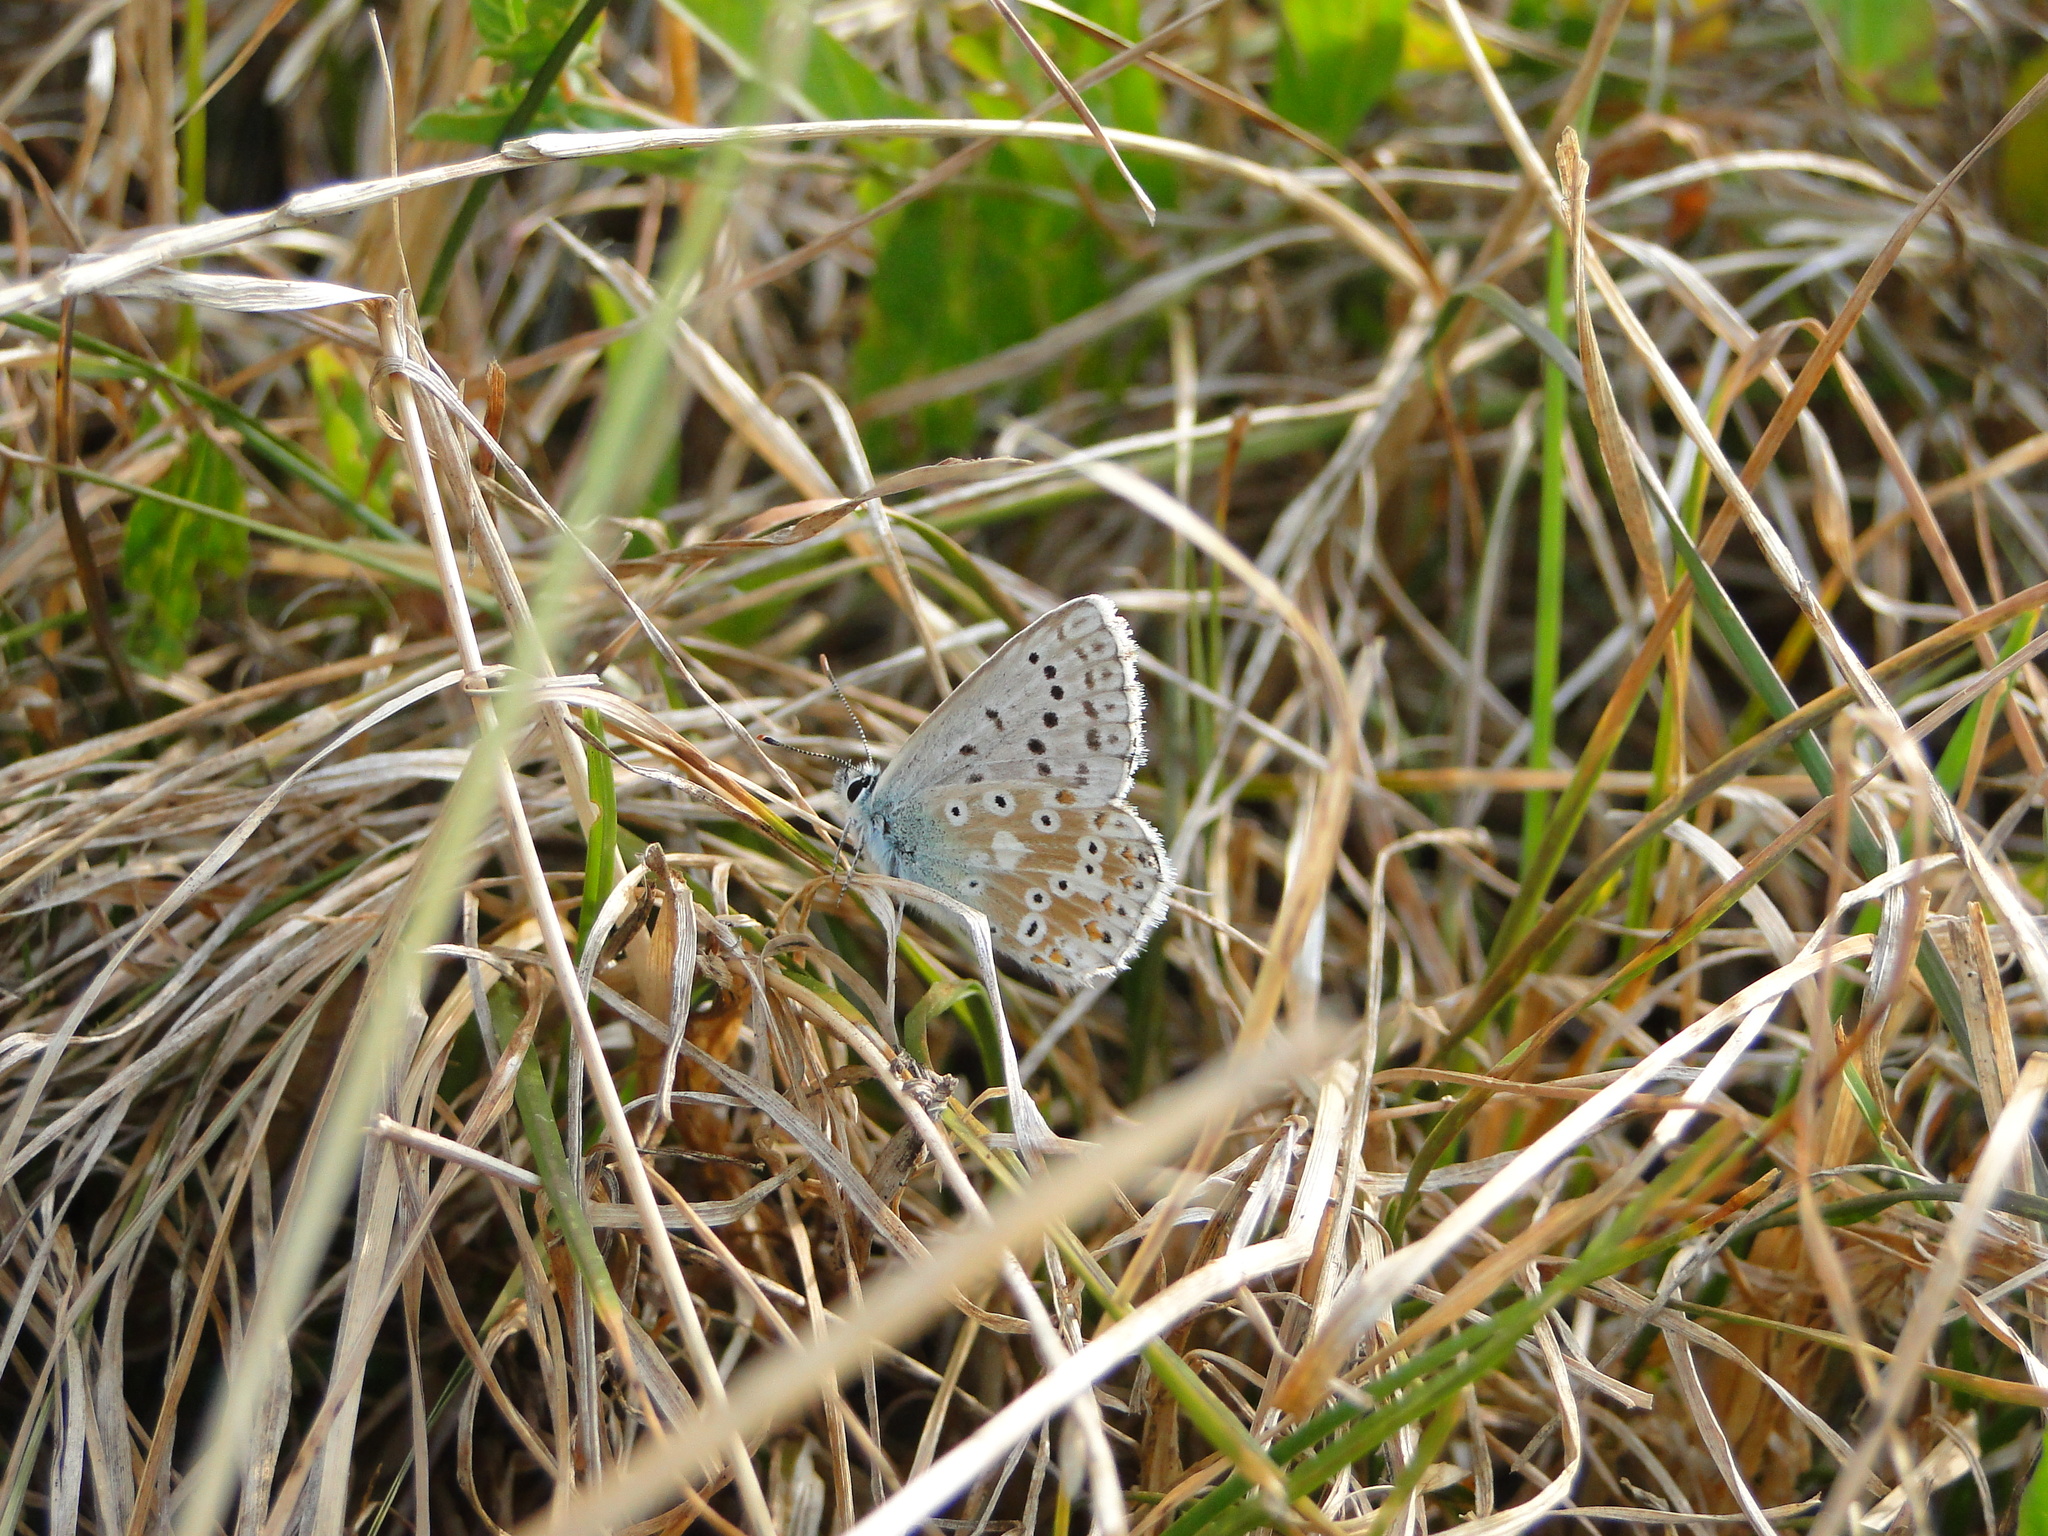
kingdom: Animalia
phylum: Arthropoda
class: Insecta
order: Lepidoptera
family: Lycaenidae
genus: Lysandra
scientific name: Lysandra coridon
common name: Chalkhill blue
